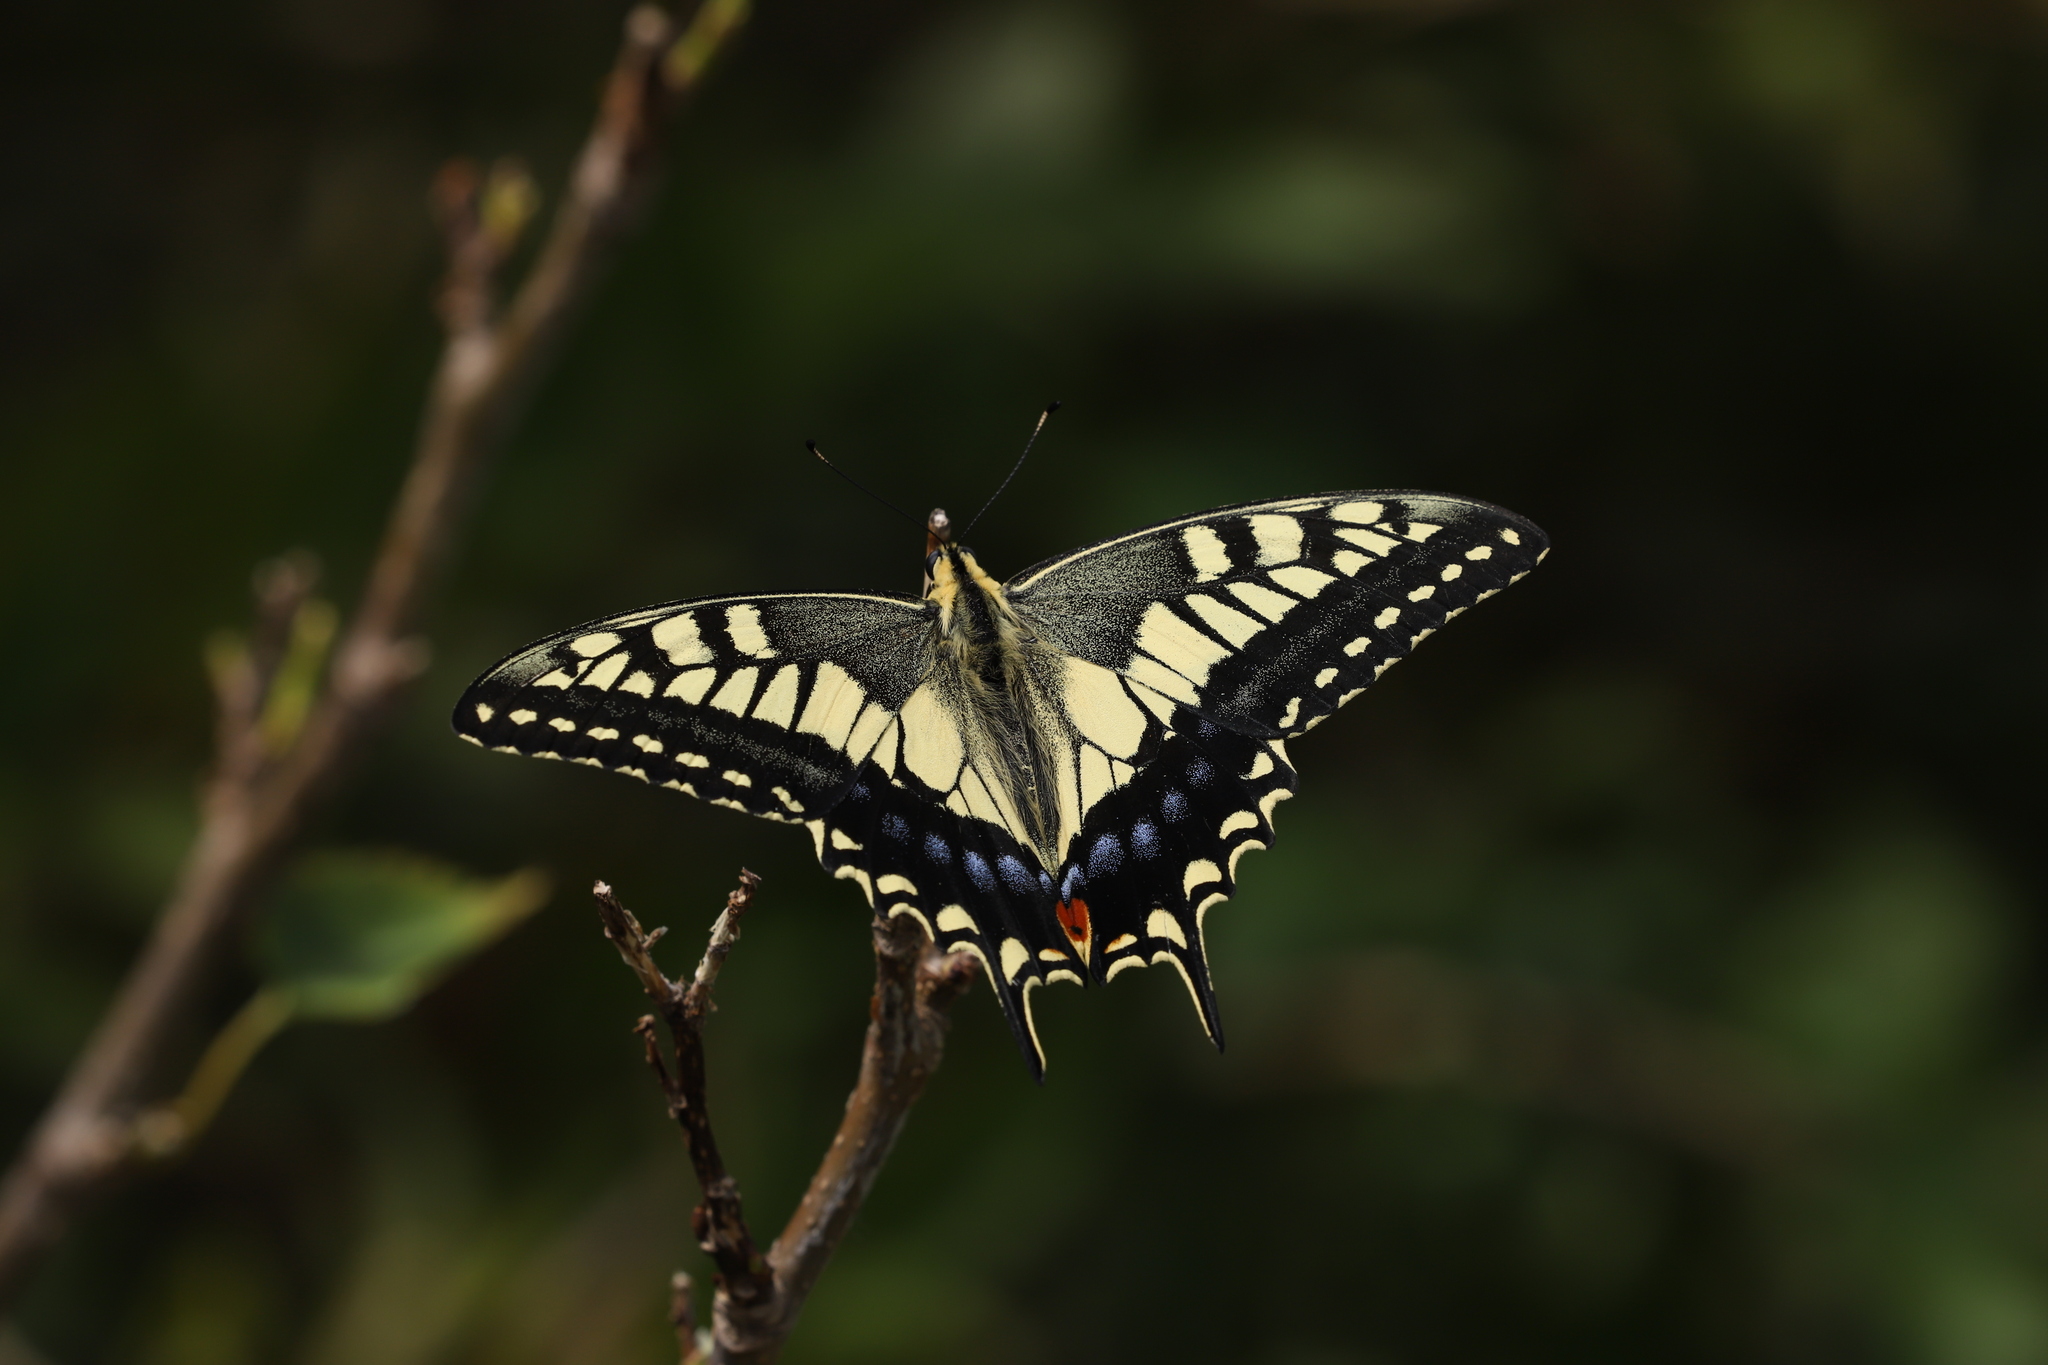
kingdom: Animalia
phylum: Arthropoda
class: Insecta
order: Lepidoptera
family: Papilionidae
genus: Papilio
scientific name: Papilio machaon
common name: Swallowtail
